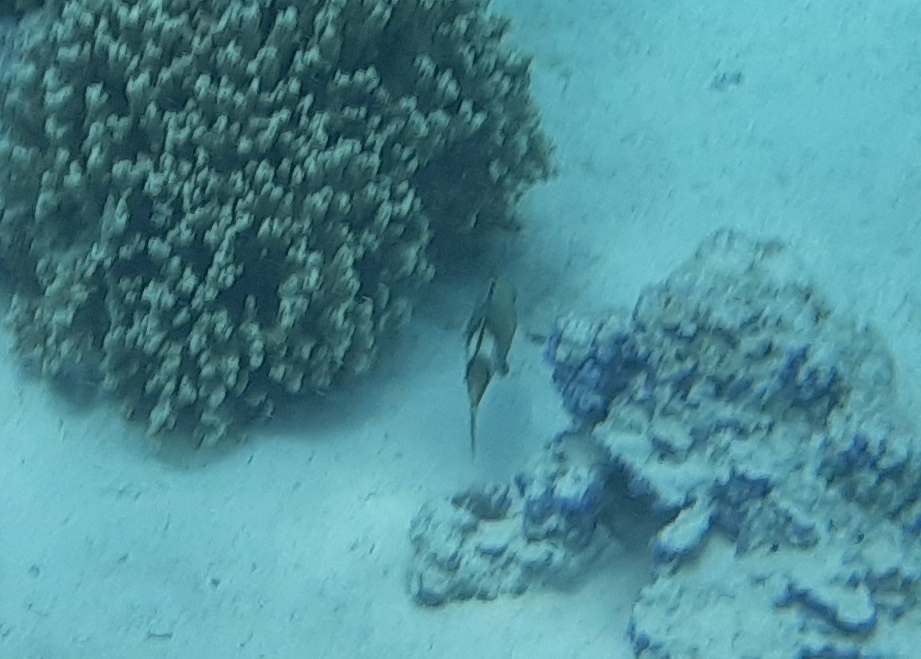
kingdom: Animalia
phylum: Chordata
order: Perciformes
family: Mullidae
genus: Parupeneus
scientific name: Parupeneus multifasciatus
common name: Manybar goatfish
